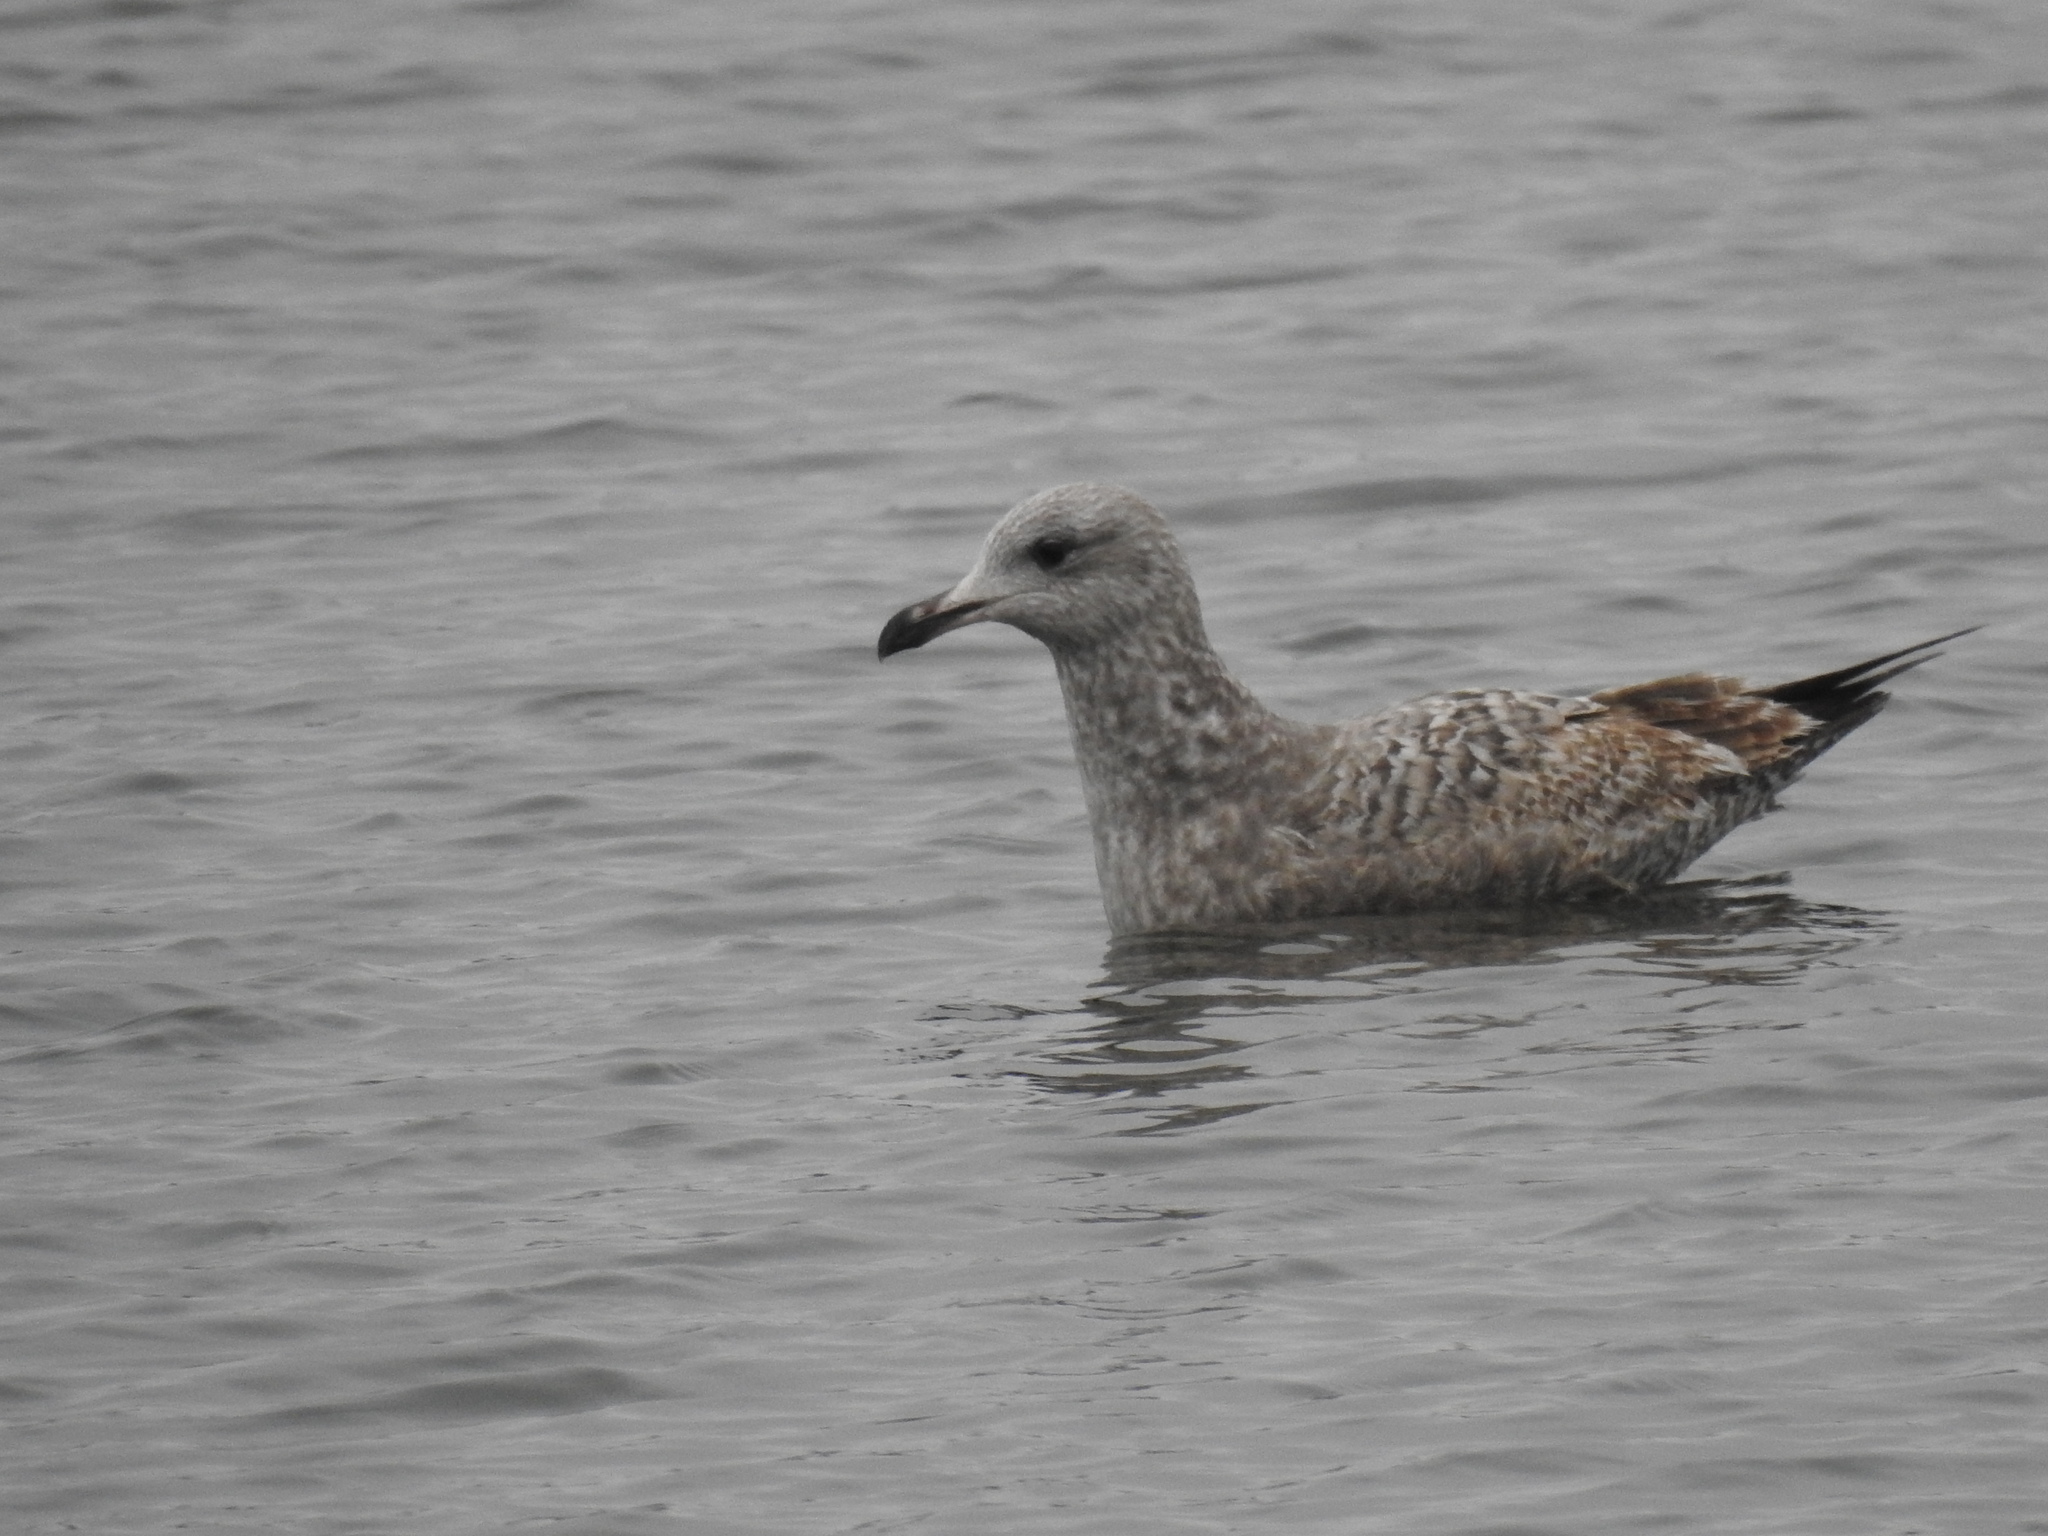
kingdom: Animalia
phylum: Chordata
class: Aves
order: Charadriiformes
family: Laridae
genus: Larus
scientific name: Larus argentatus
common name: Herring gull
